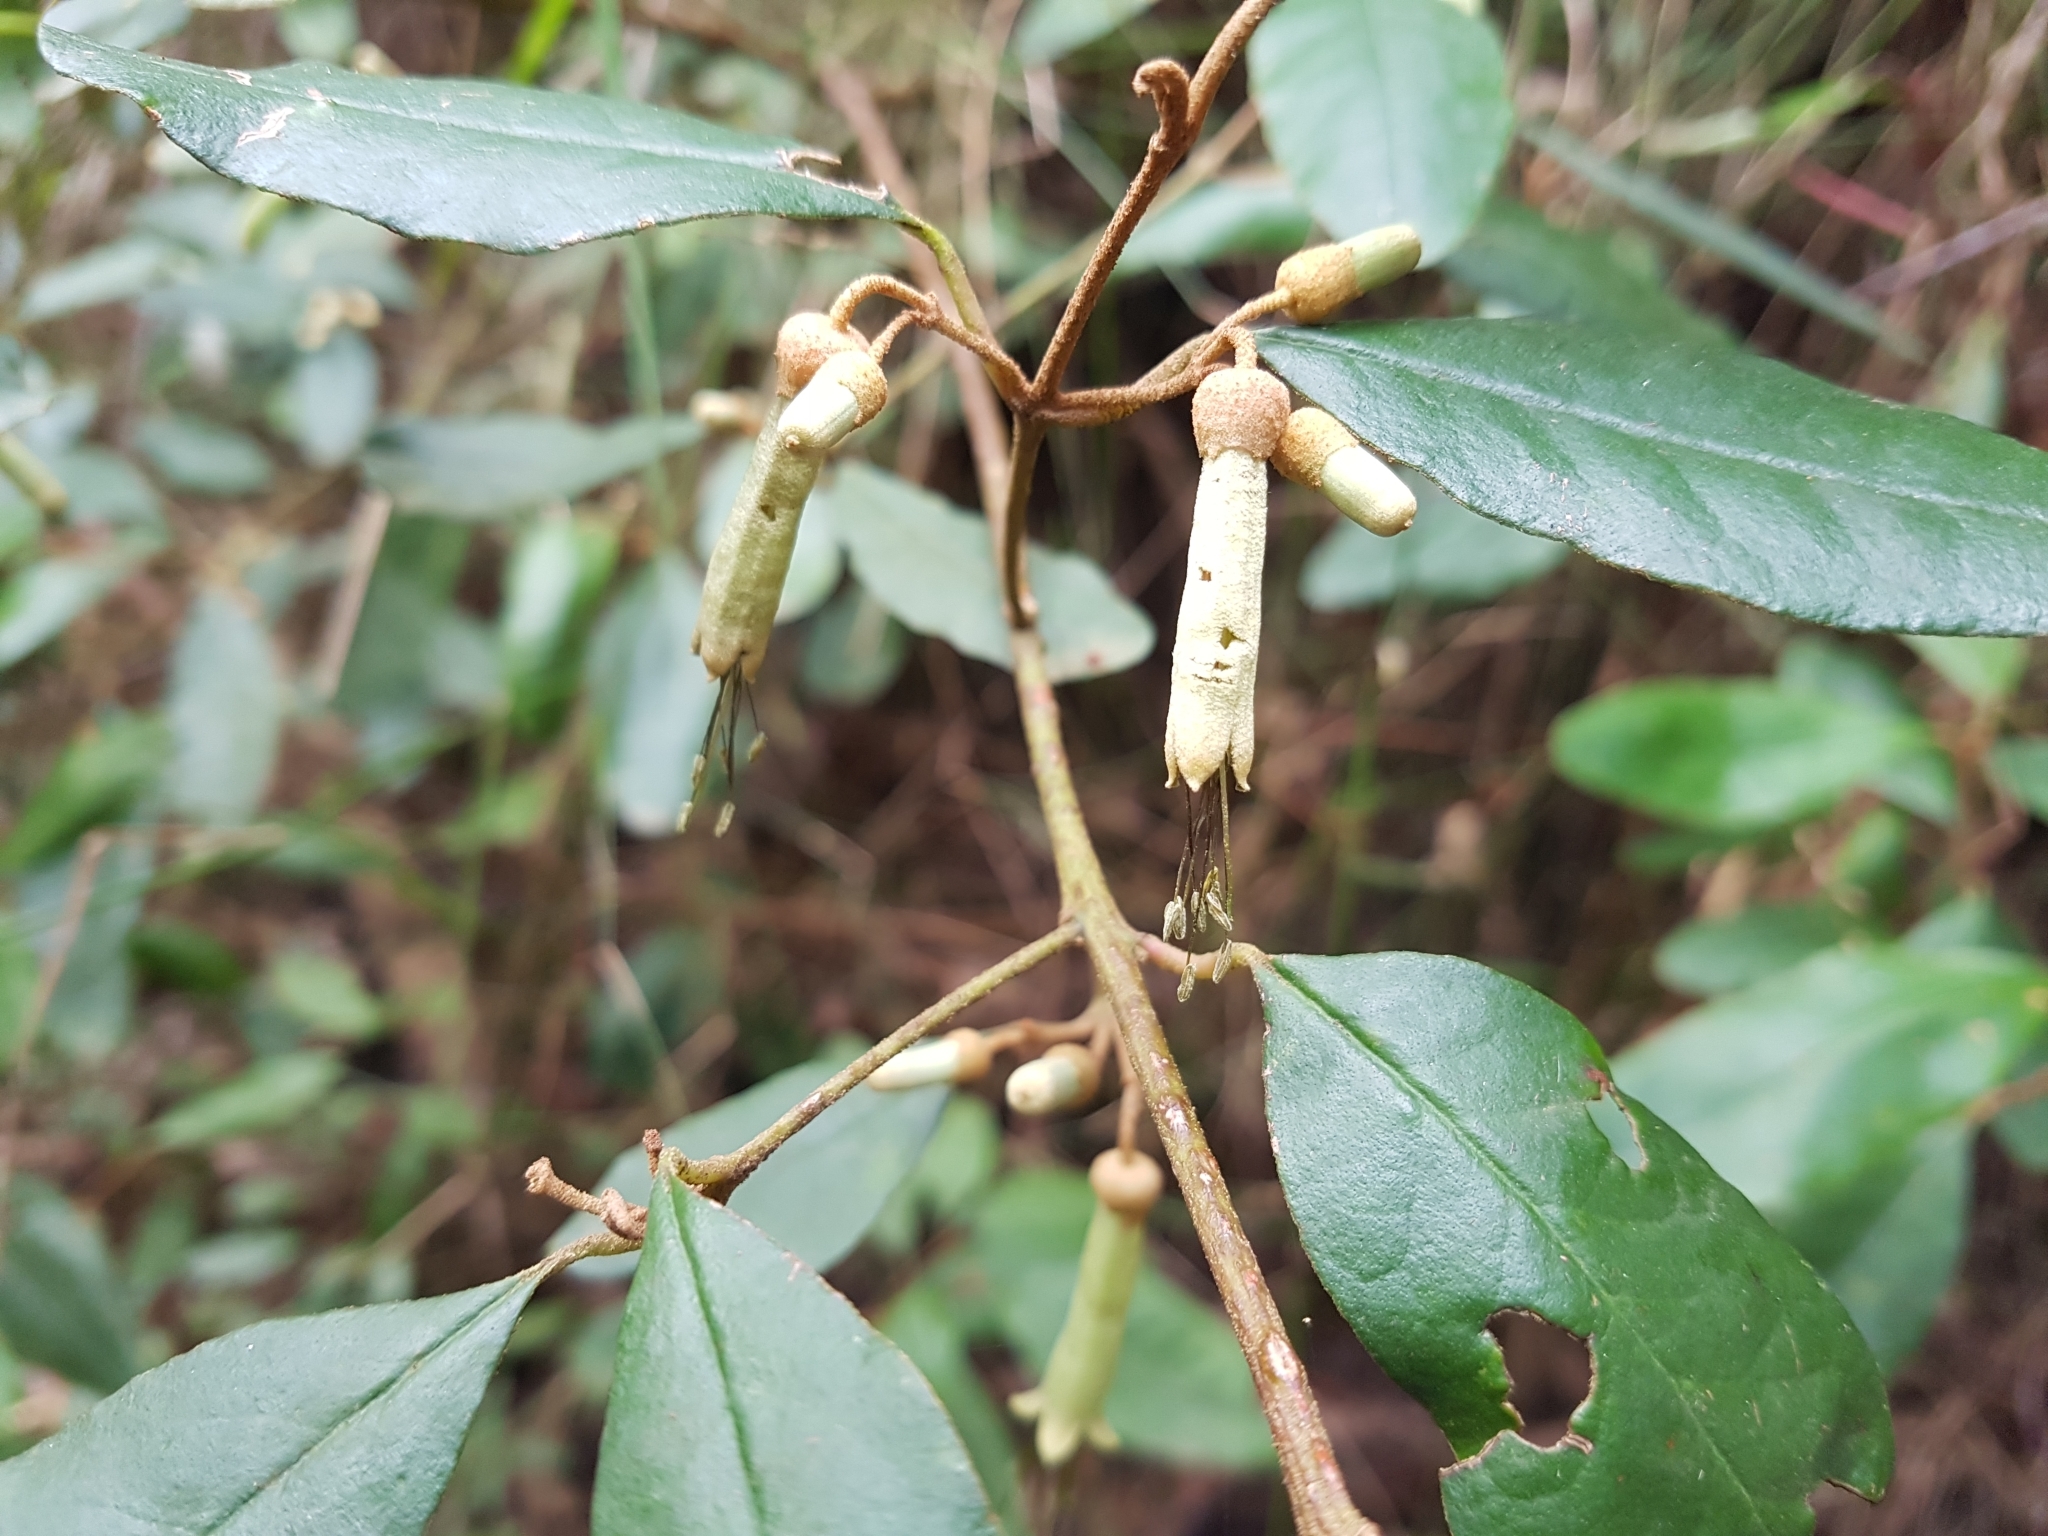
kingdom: Plantae
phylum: Tracheophyta
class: Magnoliopsida
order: Sapindales
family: Rutaceae
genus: Correa
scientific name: Correa lawrenciana
